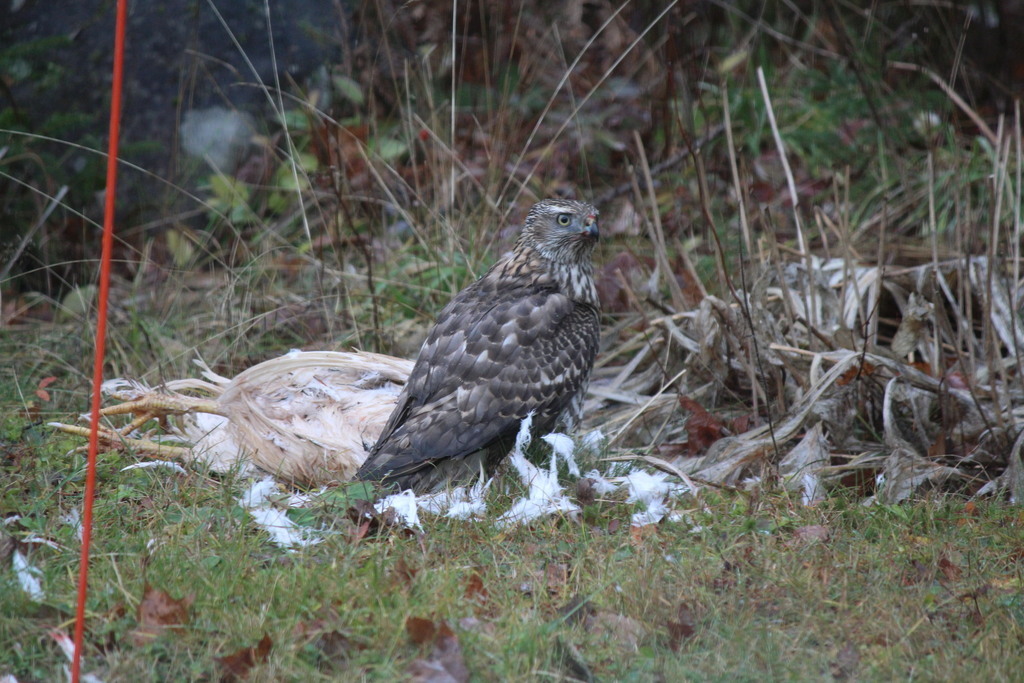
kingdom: Animalia
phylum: Chordata
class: Aves
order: Accipitriformes
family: Accipitridae
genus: Accipiter
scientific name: Accipiter gentilis
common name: Northern goshawk
